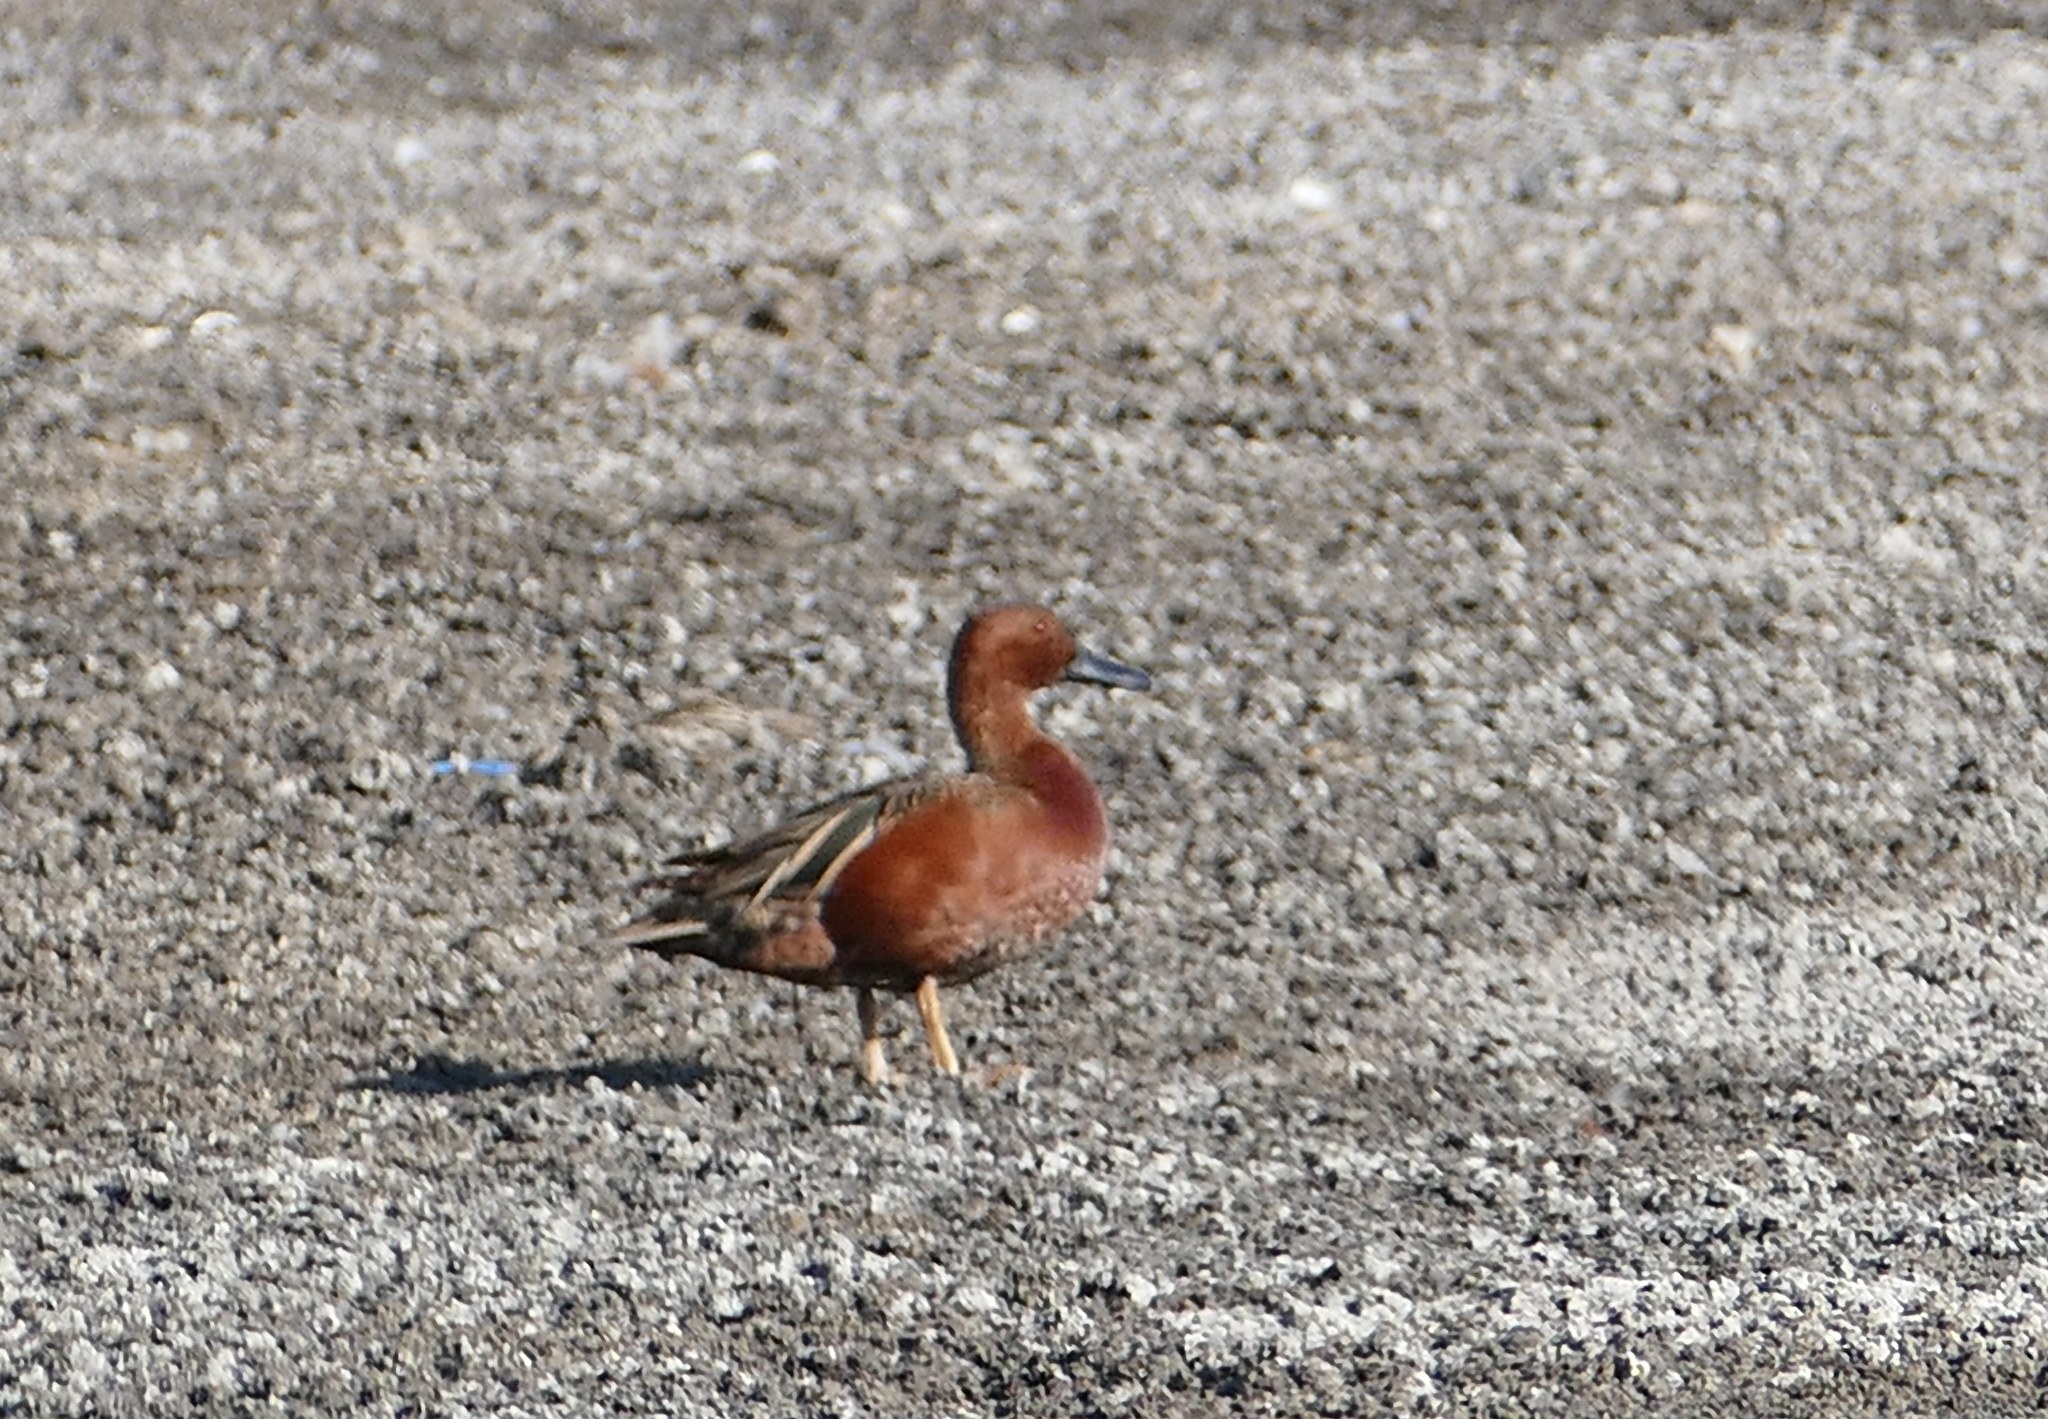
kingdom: Animalia
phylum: Chordata
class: Aves
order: Anseriformes
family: Anatidae
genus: Spatula
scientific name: Spatula cyanoptera
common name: Cinnamon teal
